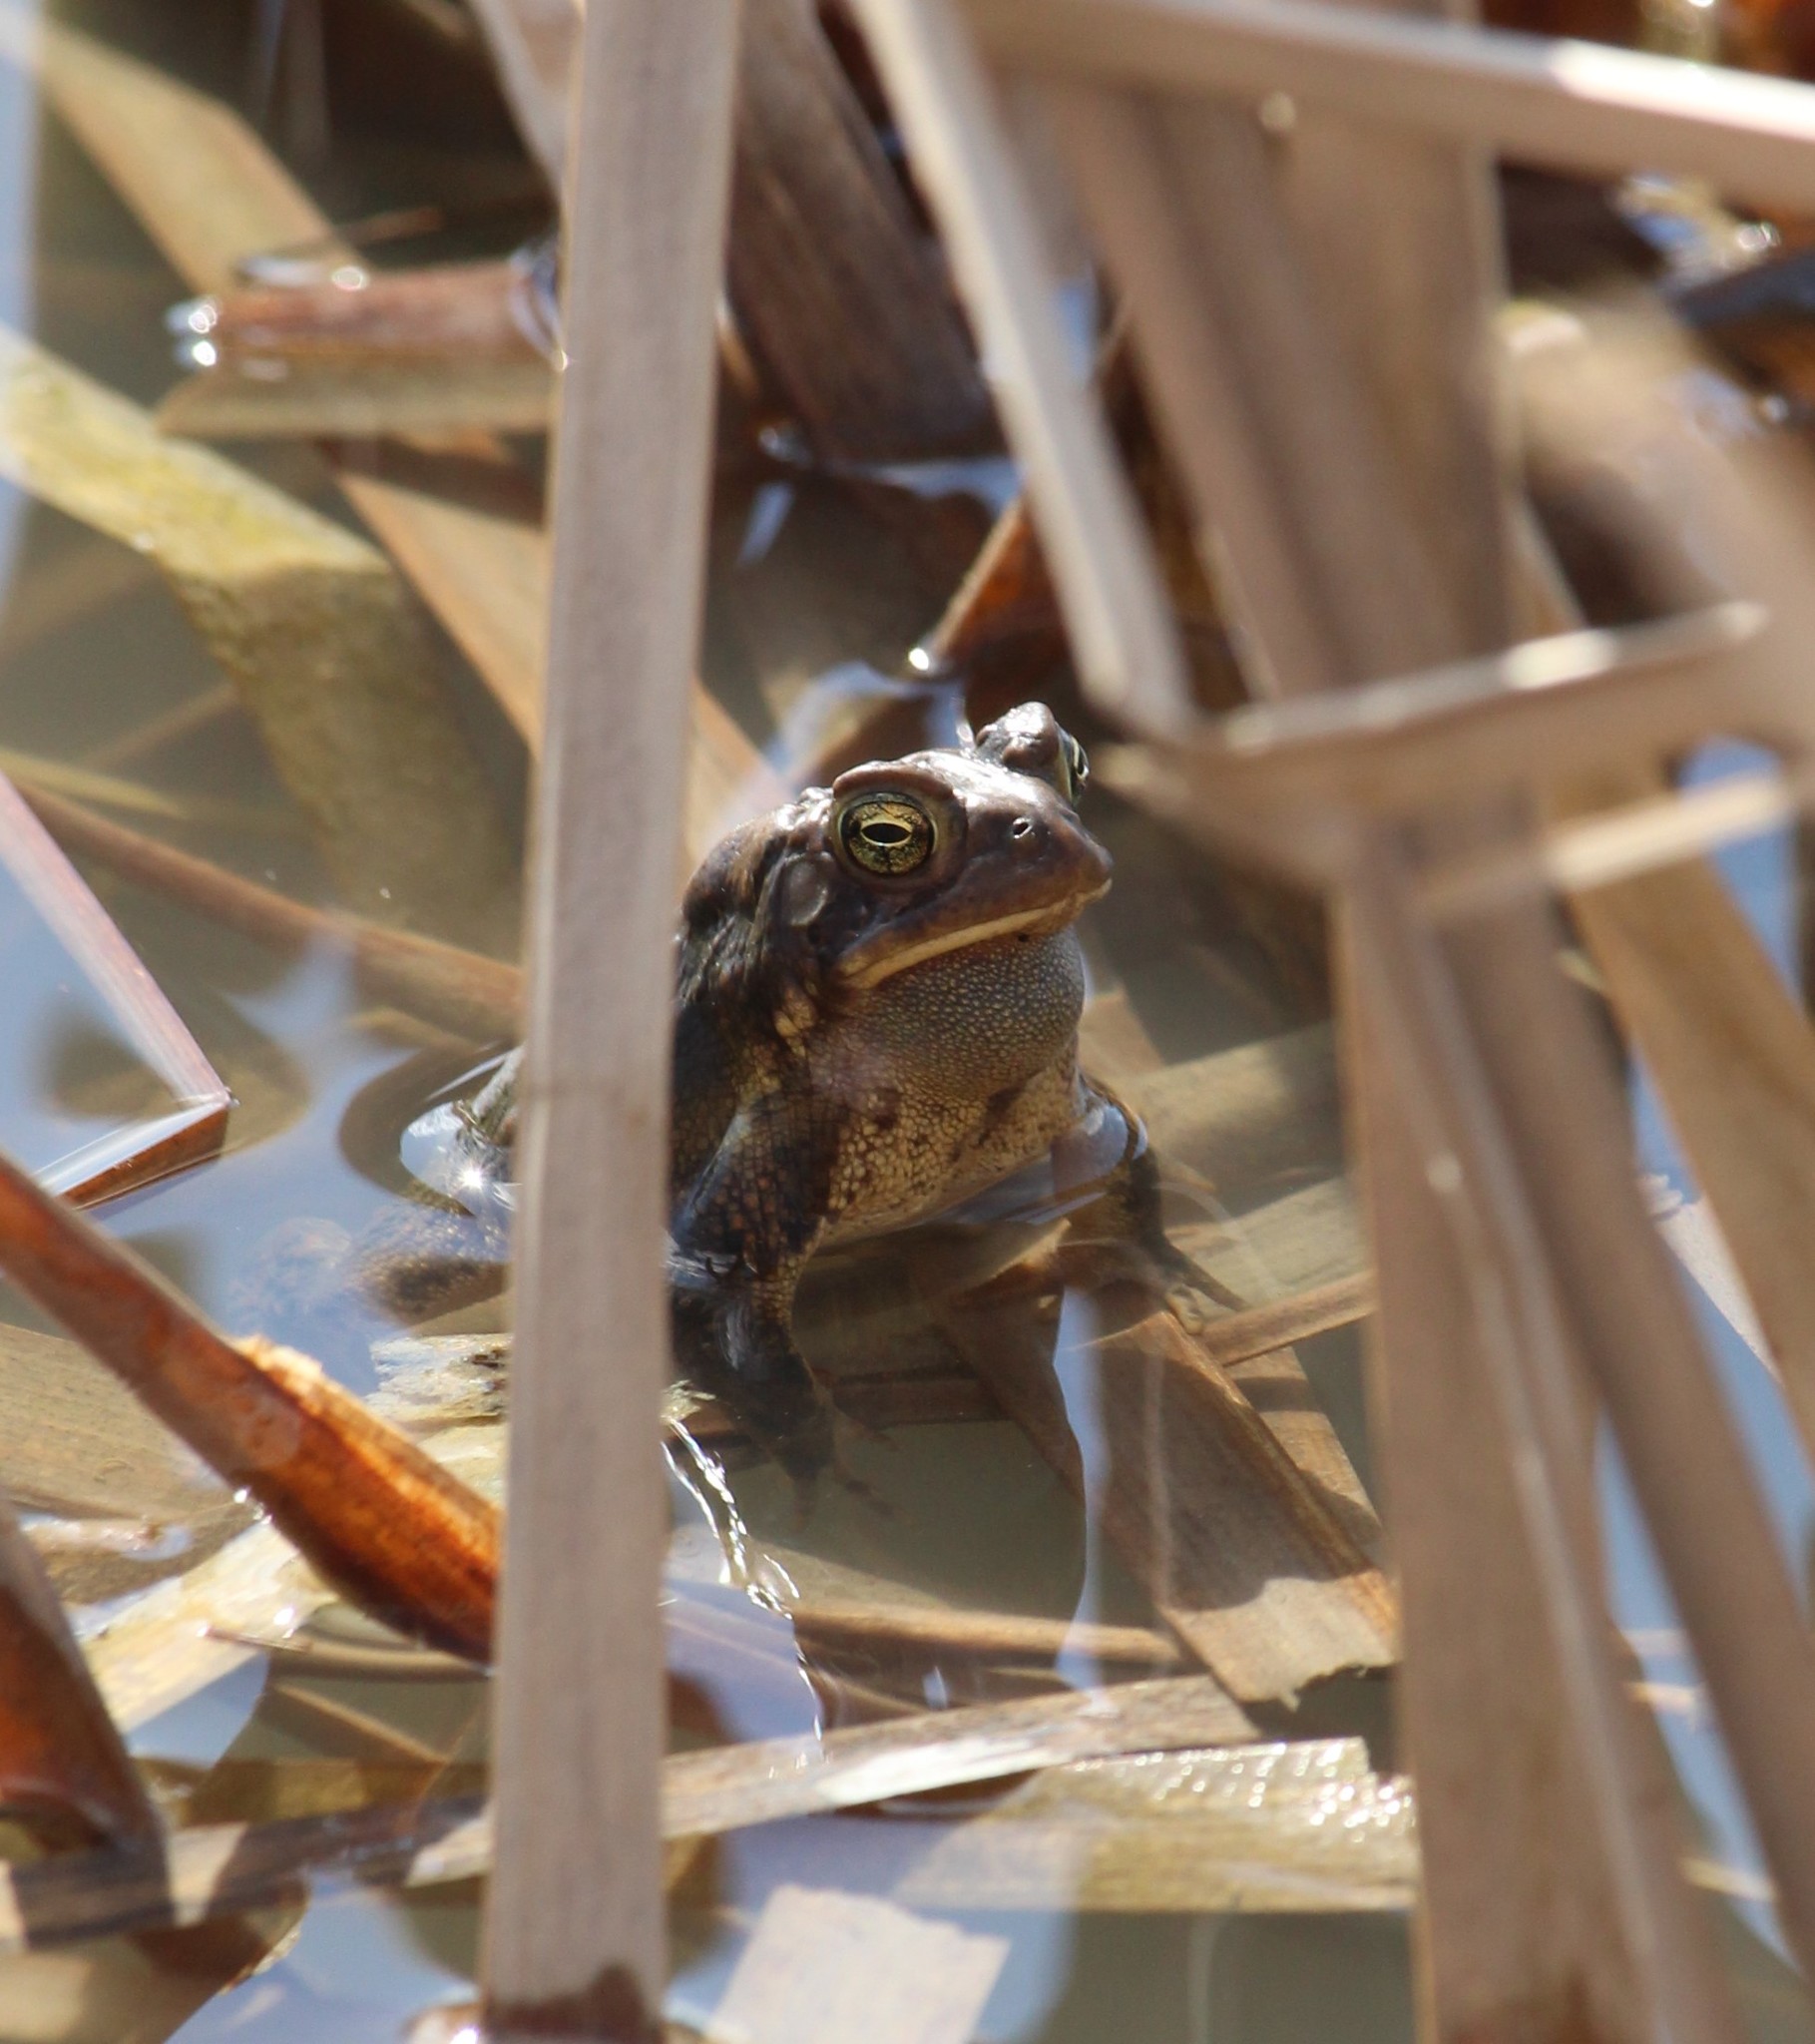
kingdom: Animalia
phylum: Chordata
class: Amphibia
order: Anura
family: Bufonidae
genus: Anaxyrus
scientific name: Anaxyrus americanus
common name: American toad
